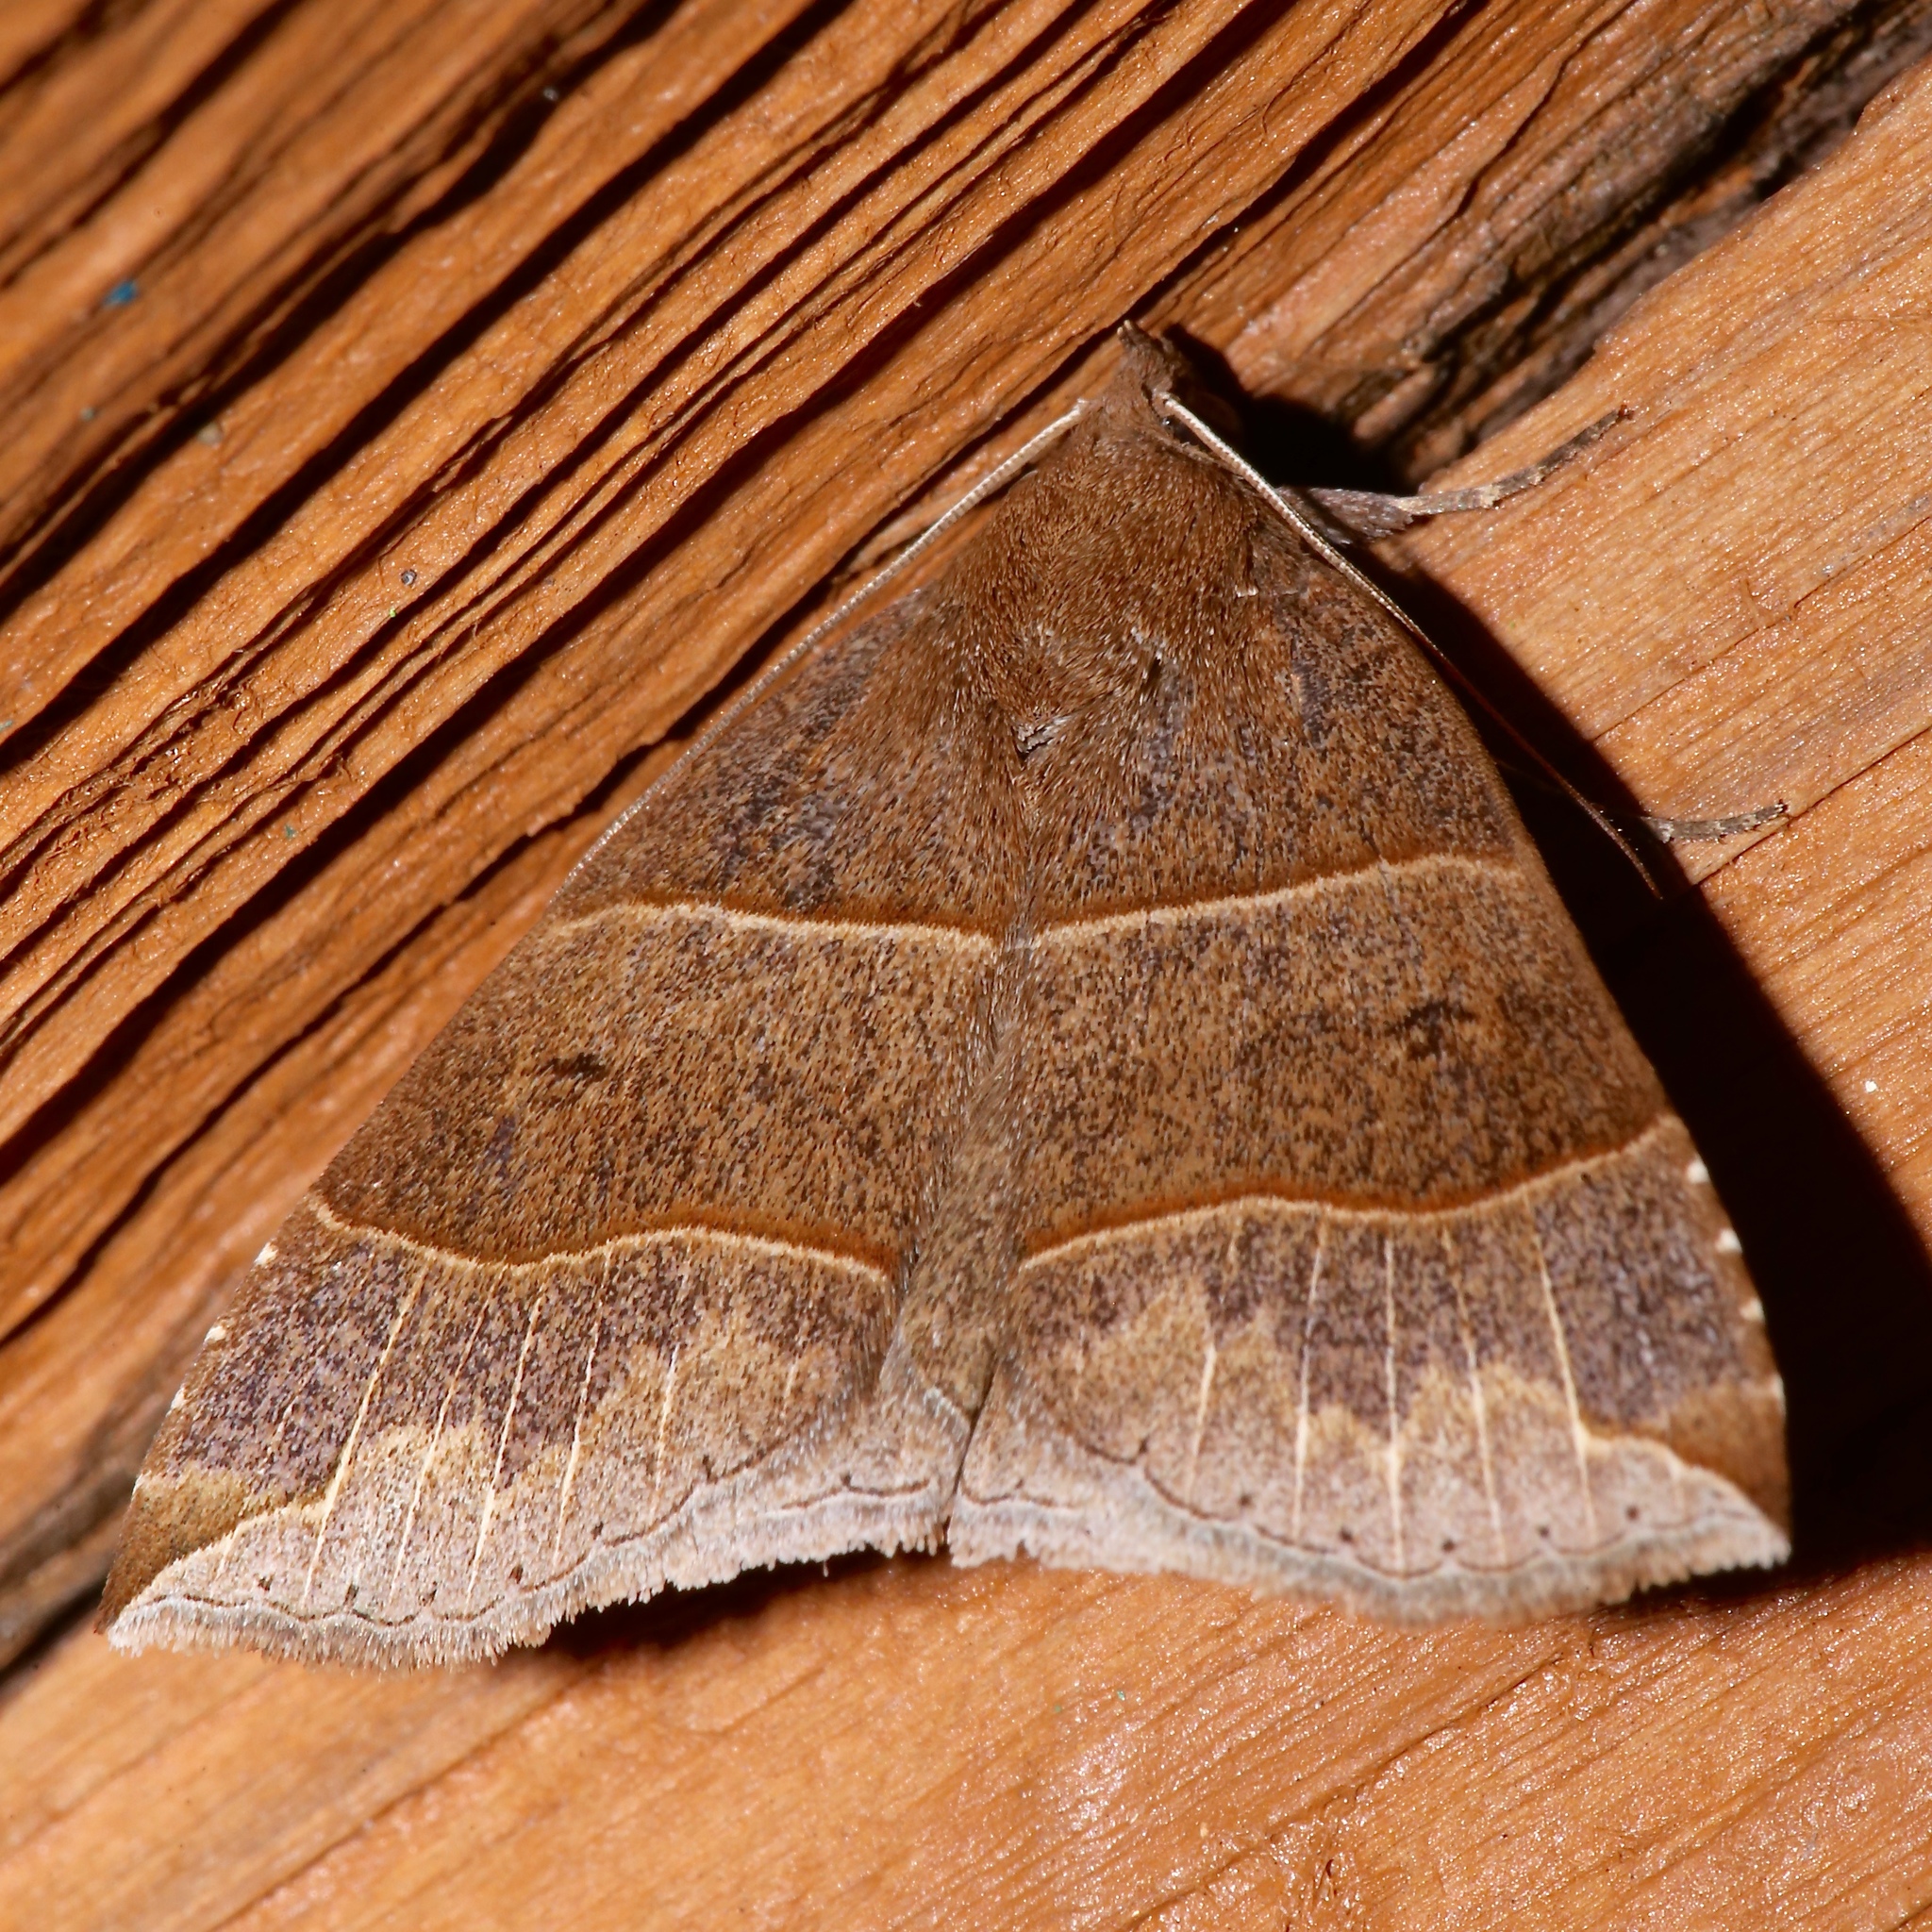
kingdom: Animalia
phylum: Arthropoda
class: Insecta
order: Lepidoptera
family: Erebidae
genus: Parallelia
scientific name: Parallelia bistriaris
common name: Maple looper moth
